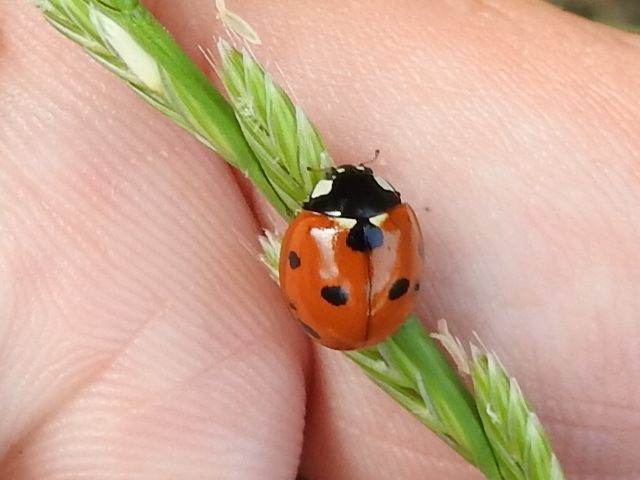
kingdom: Animalia
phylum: Arthropoda
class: Insecta
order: Coleoptera
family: Coccinellidae
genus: Coccinella
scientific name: Coccinella septempunctata
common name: Sevenspotted lady beetle
